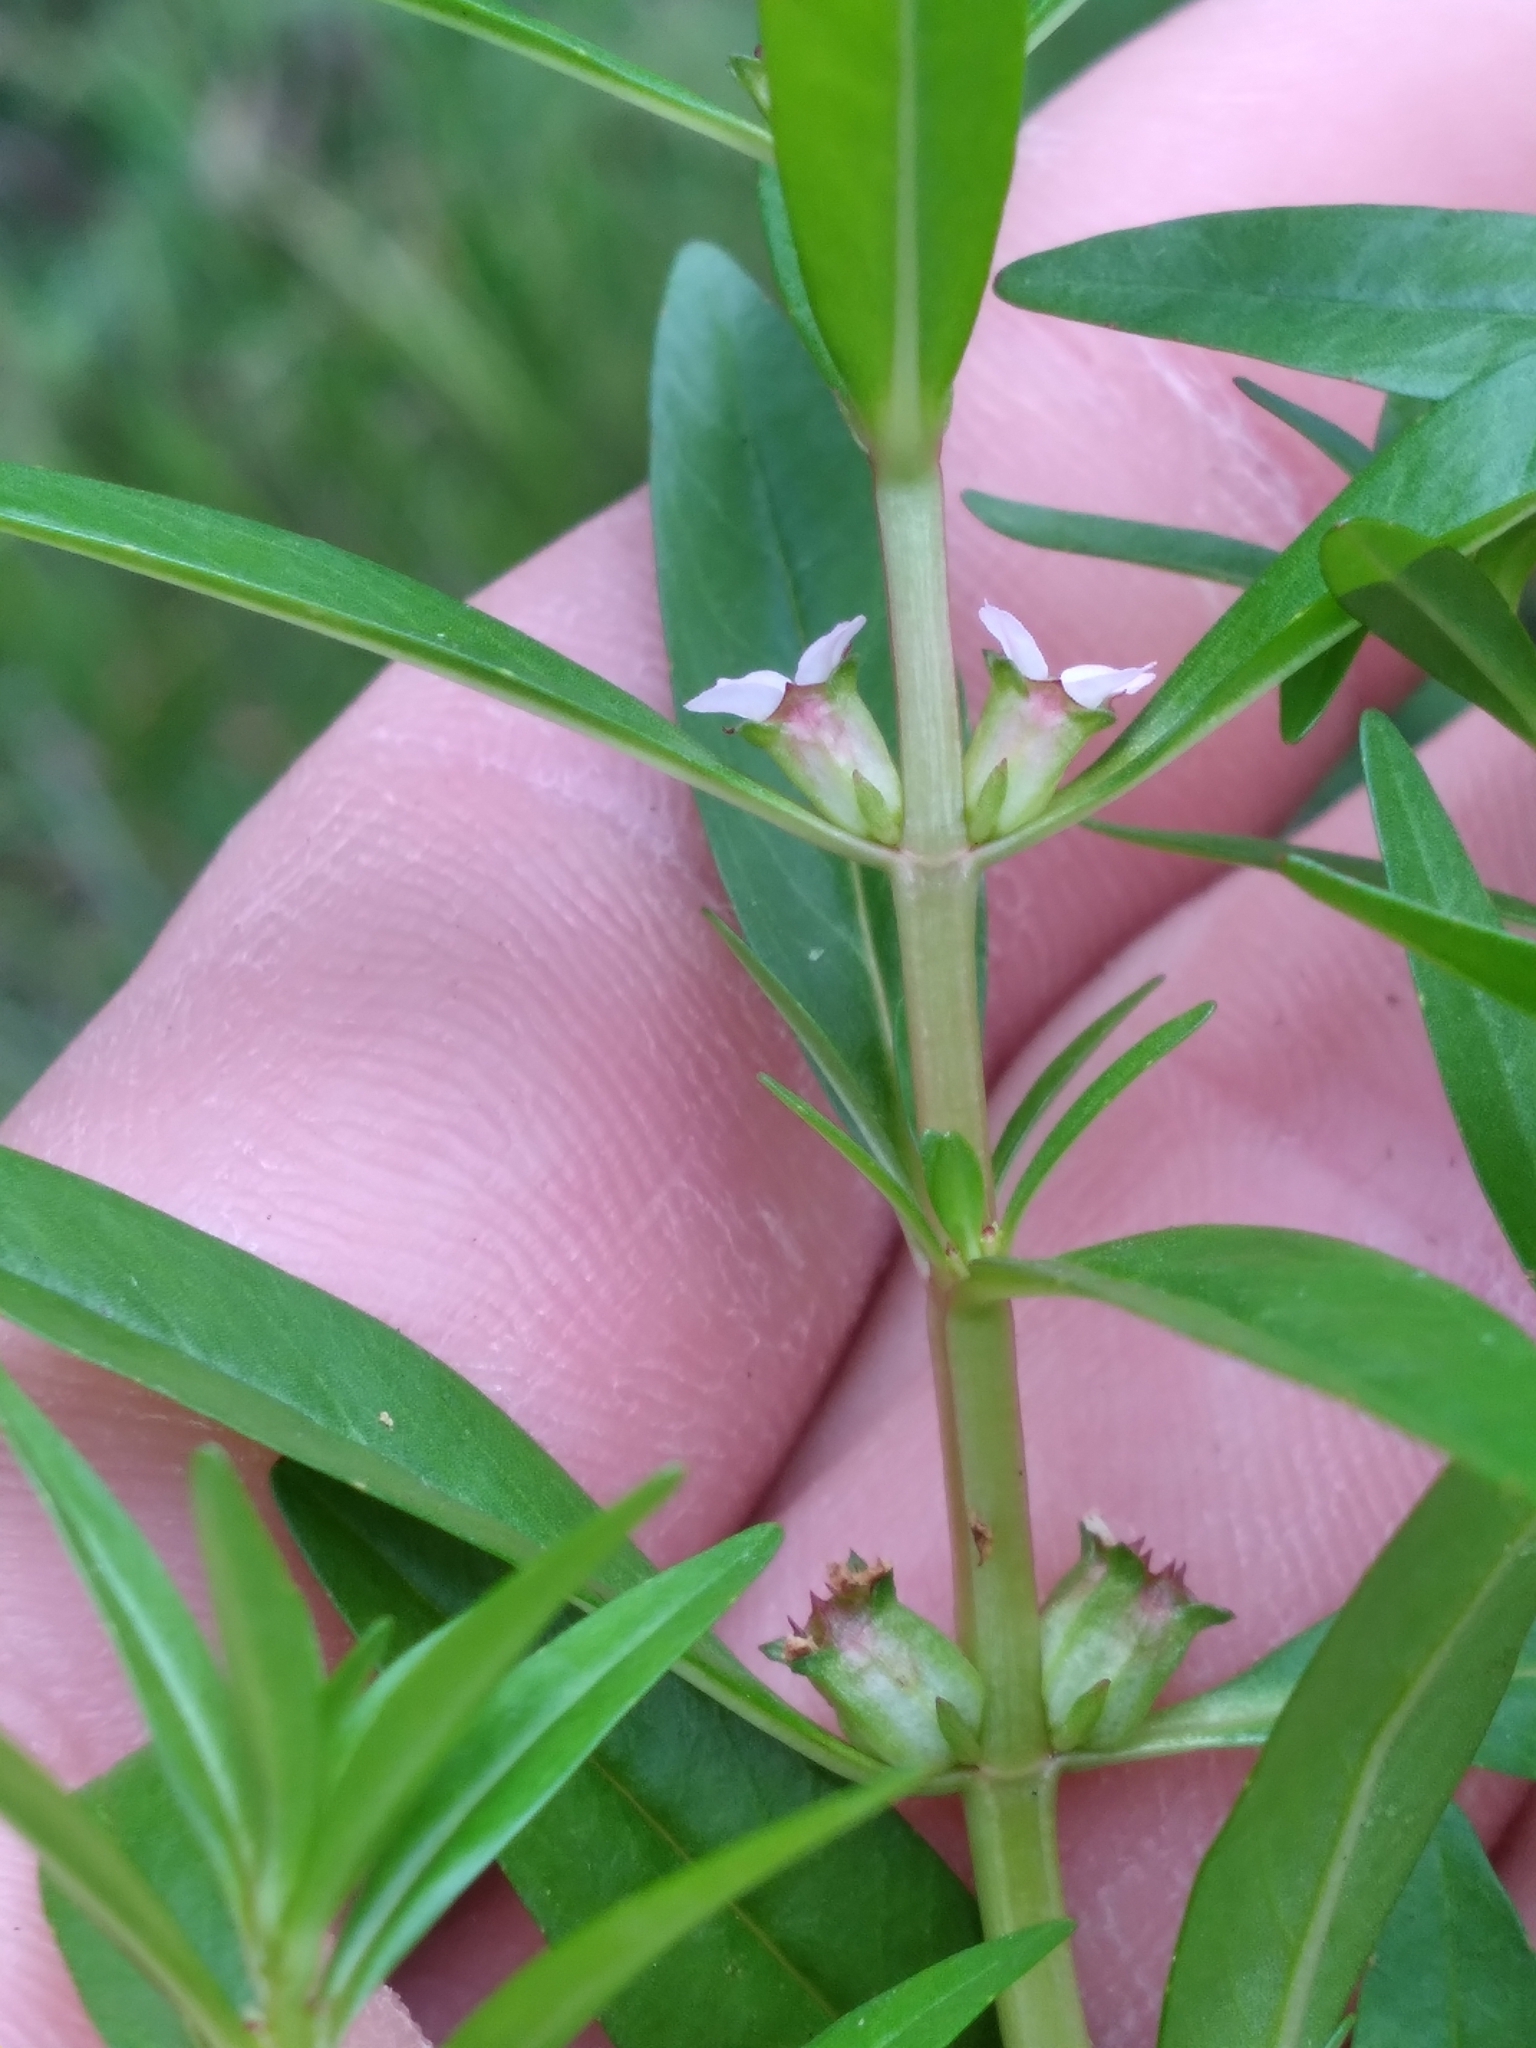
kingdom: Plantae
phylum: Tracheophyta
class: Magnoliopsida
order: Myrtales
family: Lythraceae
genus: Rotala
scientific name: Rotala ramosior
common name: Lowland rotala
